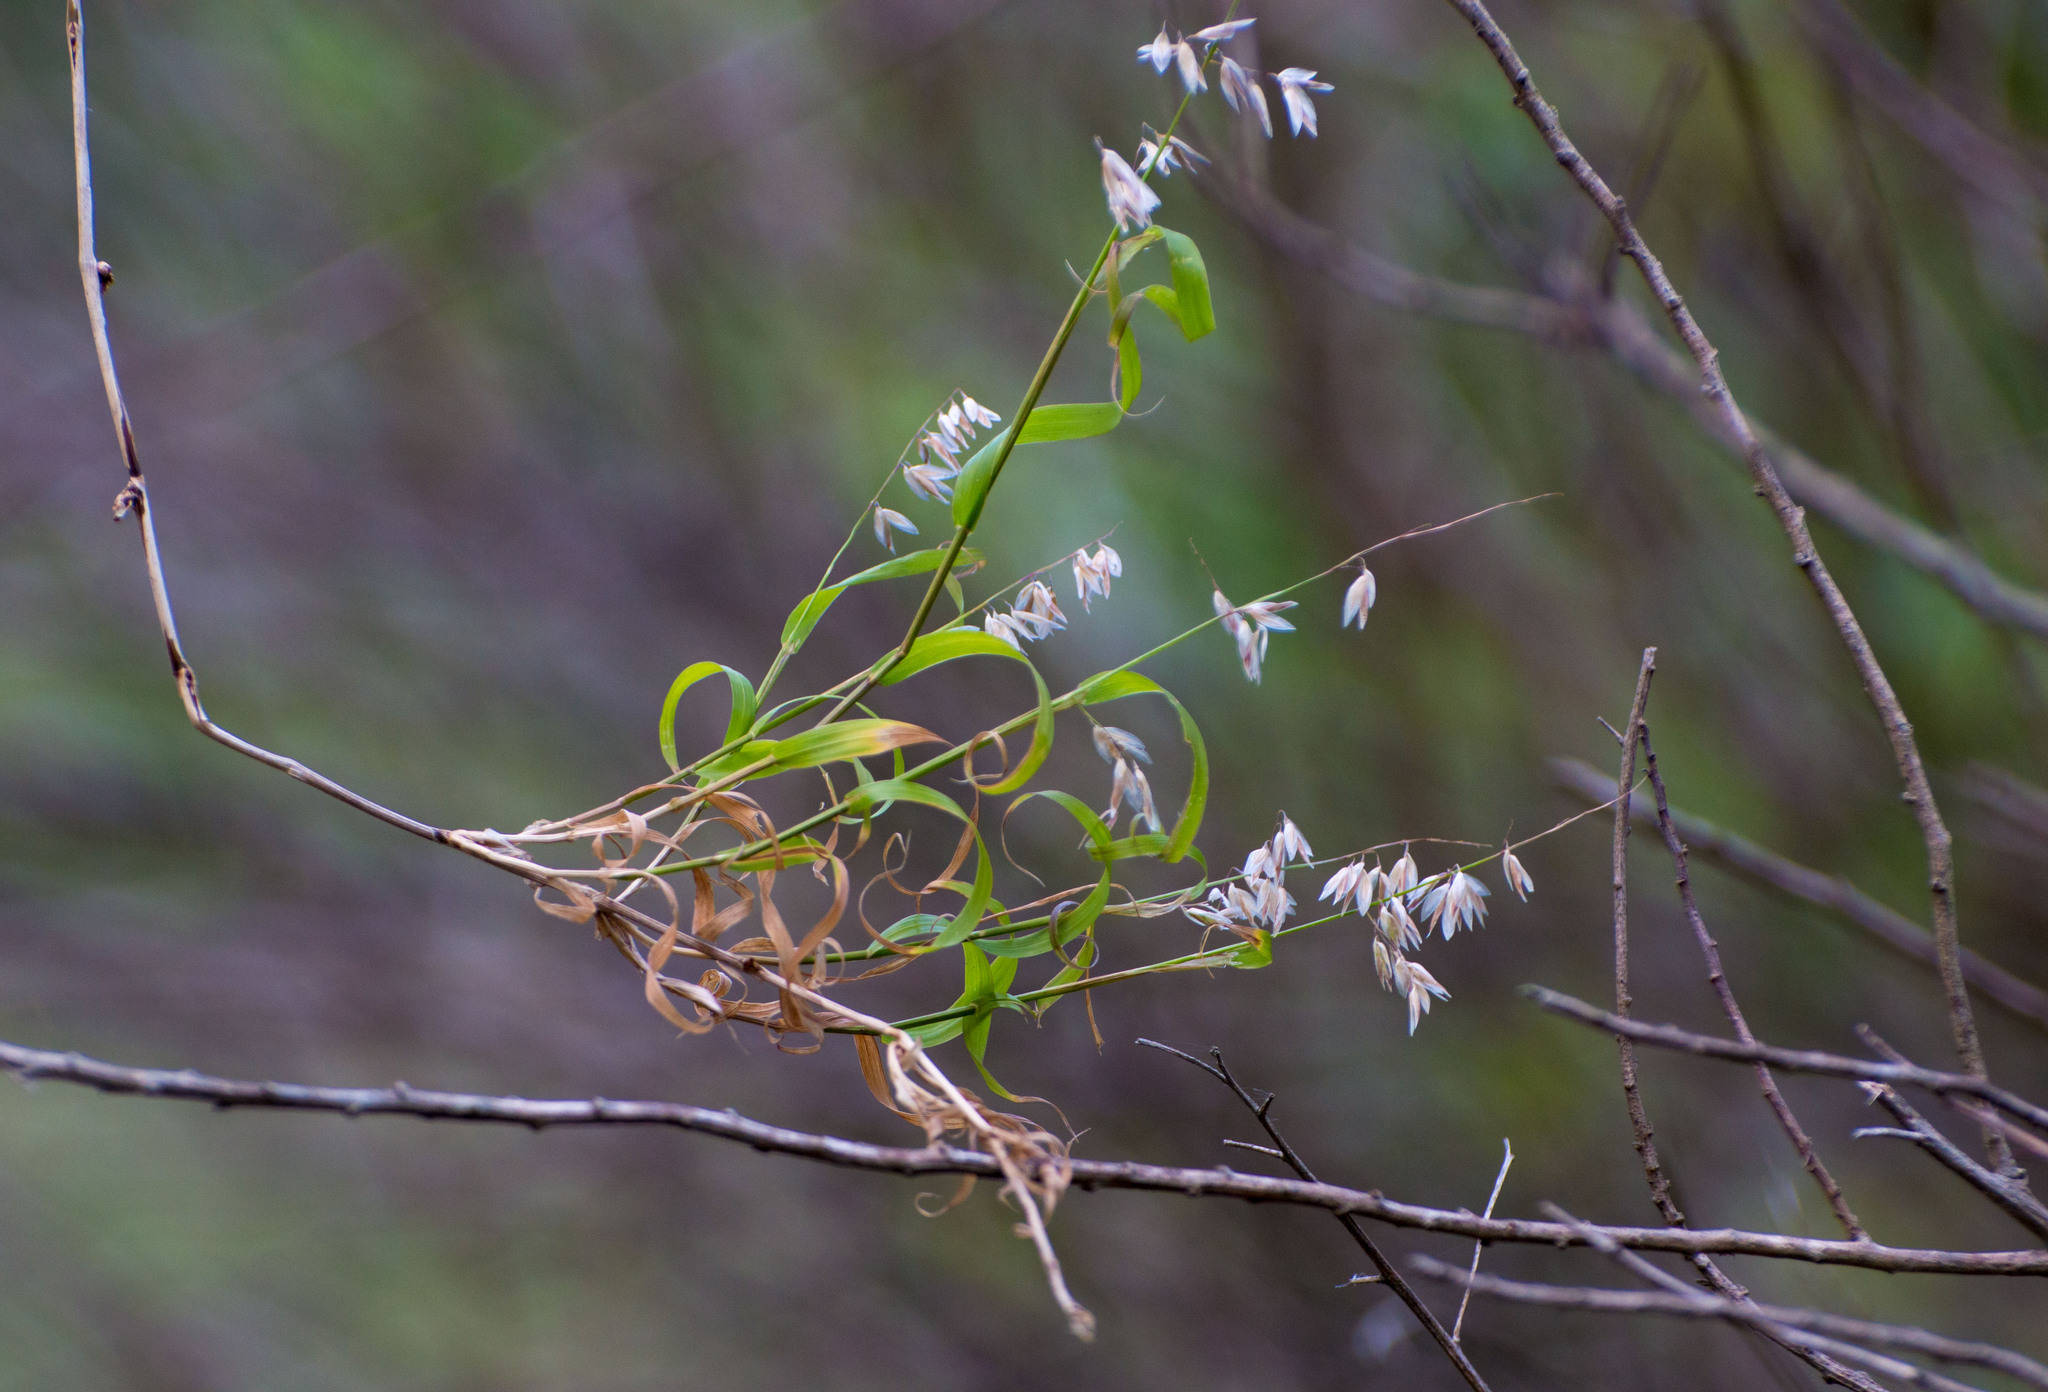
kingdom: Plantae
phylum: Tracheophyta
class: Liliopsida
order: Poales
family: Poaceae
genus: Melica
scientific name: Melica sarmentosa
